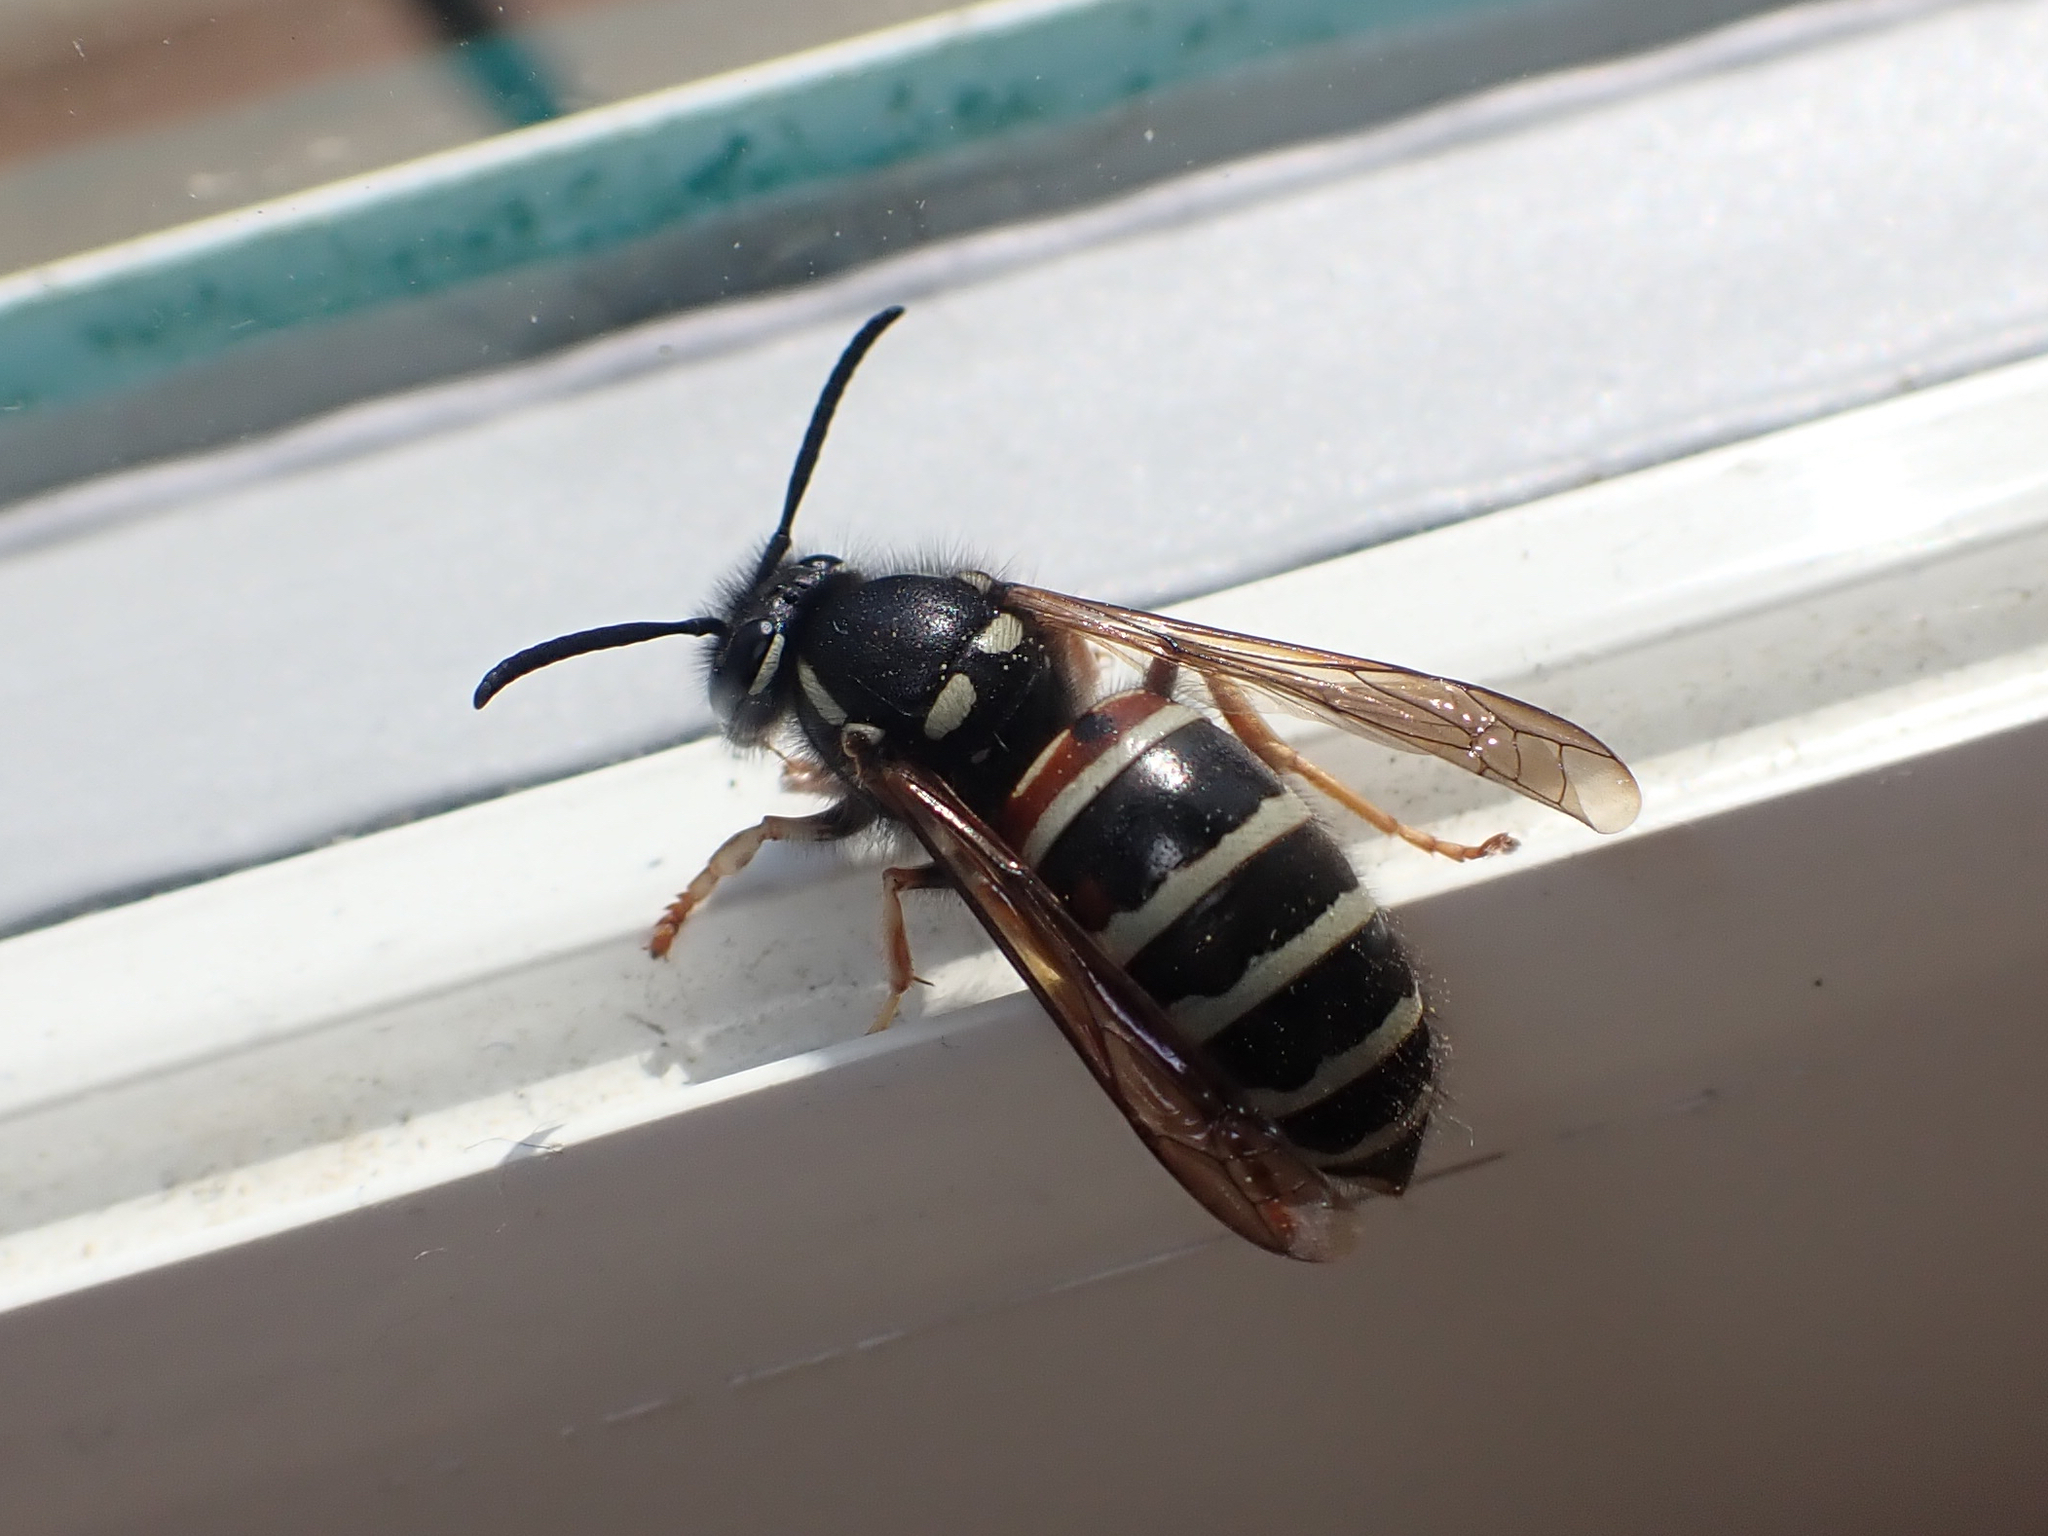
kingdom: Animalia
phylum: Arthropoda
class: Insecta
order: Hymenoptera
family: Vespidae
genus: Vespula
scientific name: Vespula intermedia
